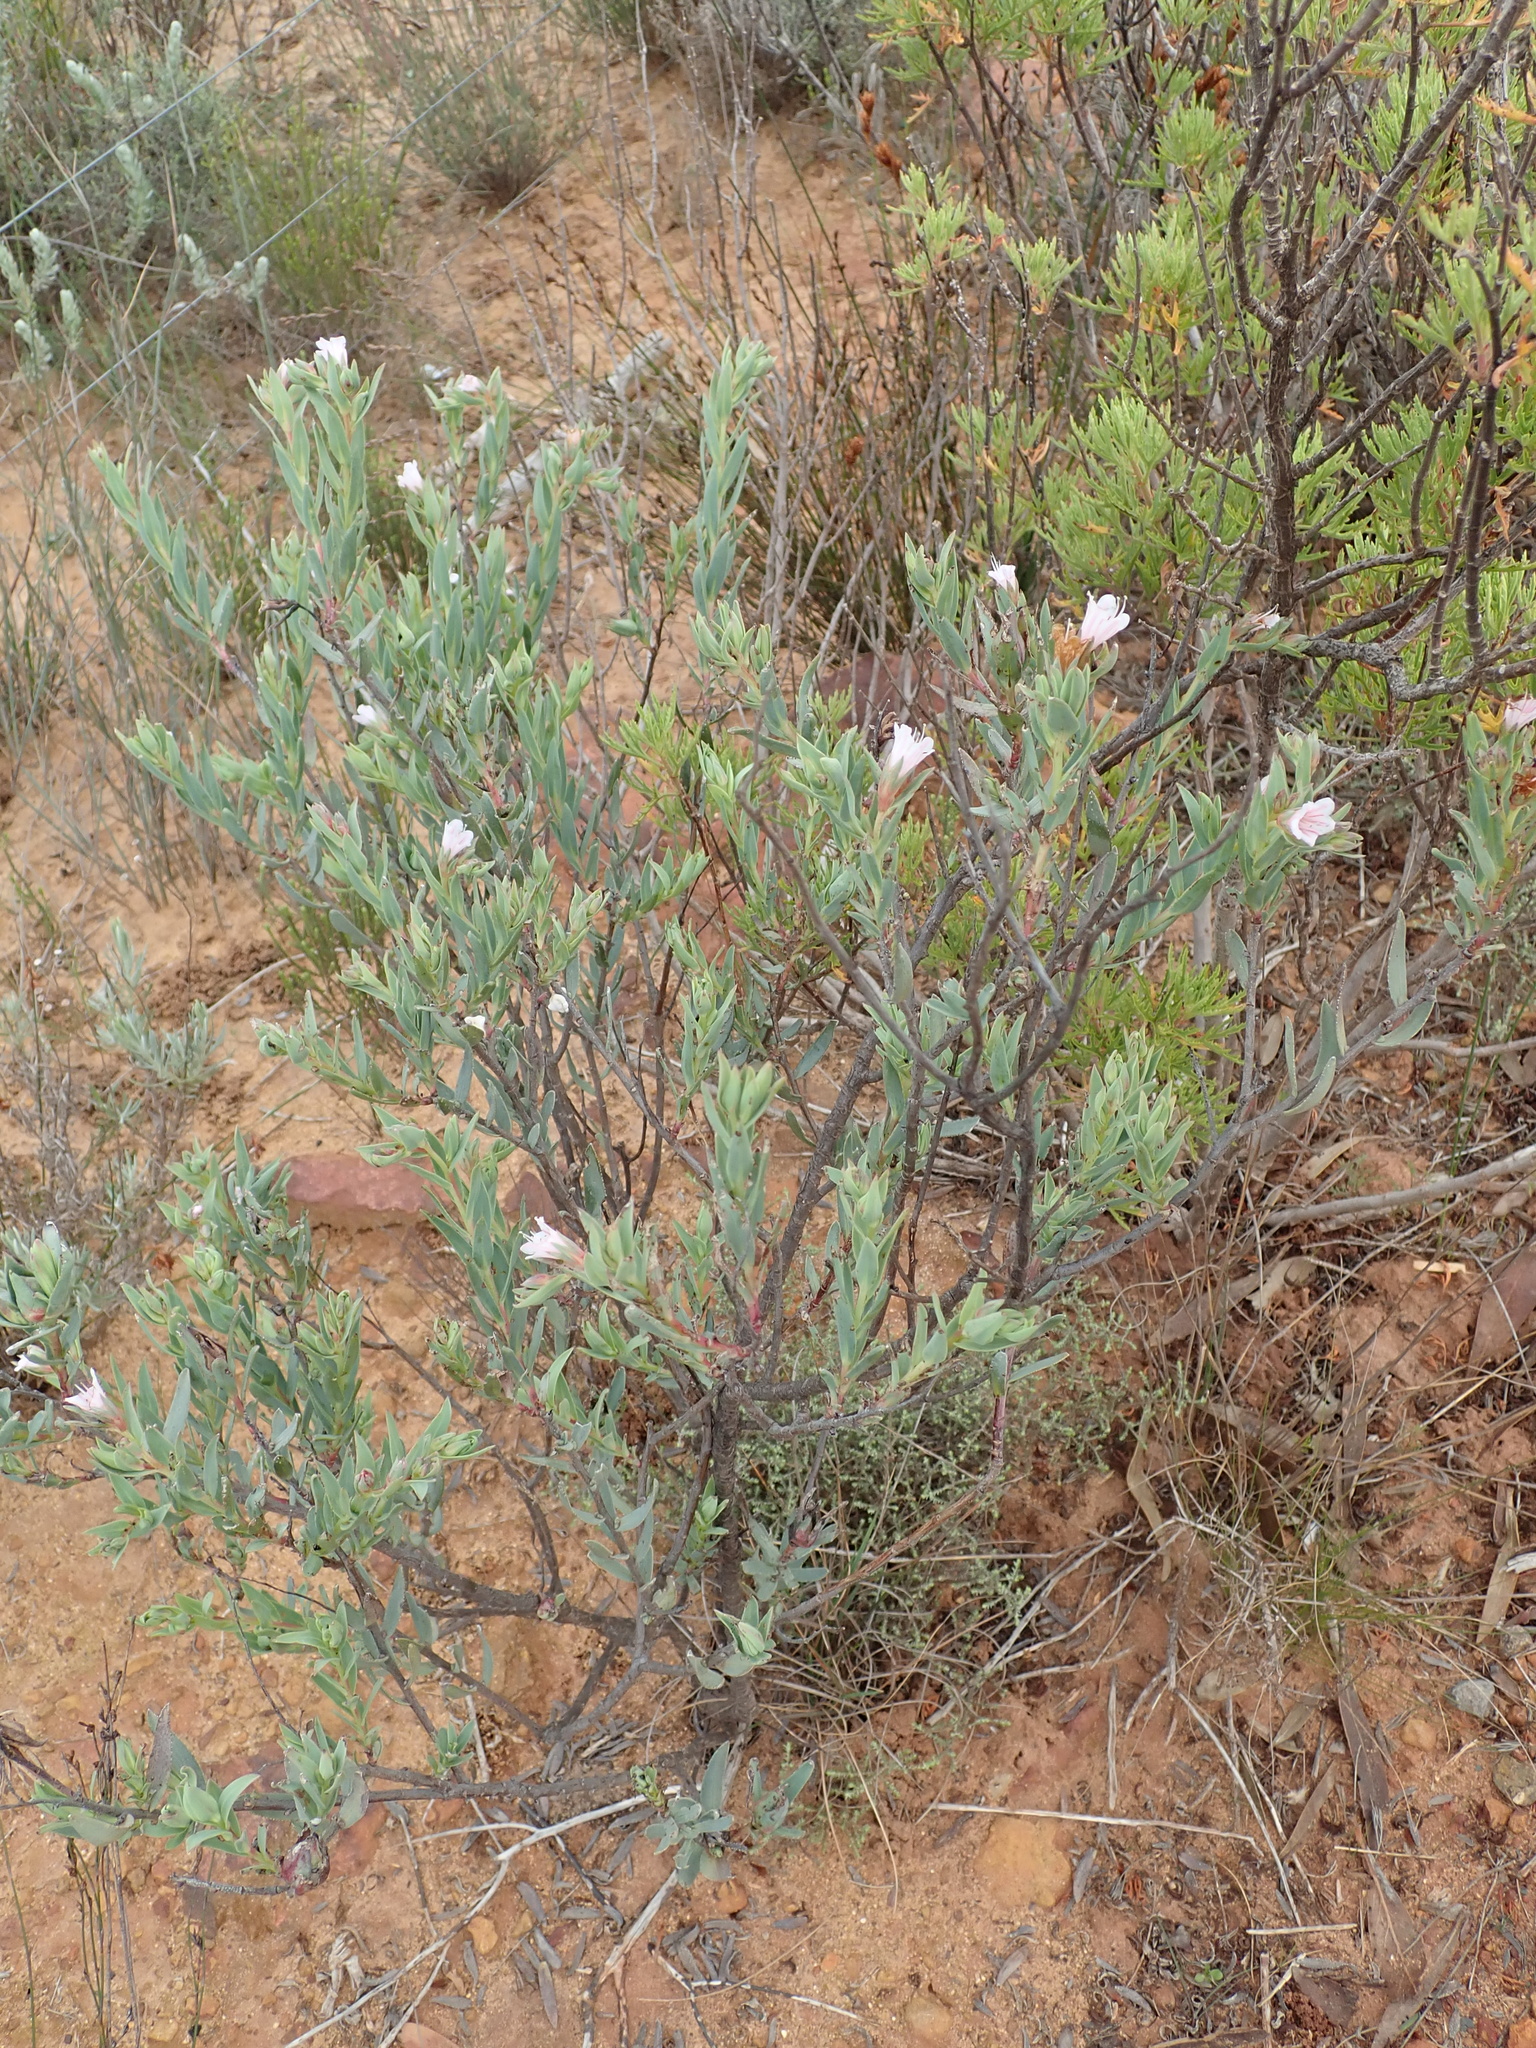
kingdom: Plantae
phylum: Tracheophyta
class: Magnoliopsida
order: Boraginales
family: Boraginaceae
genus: Lobostemon
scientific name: Lobostemon glaucophyllus
